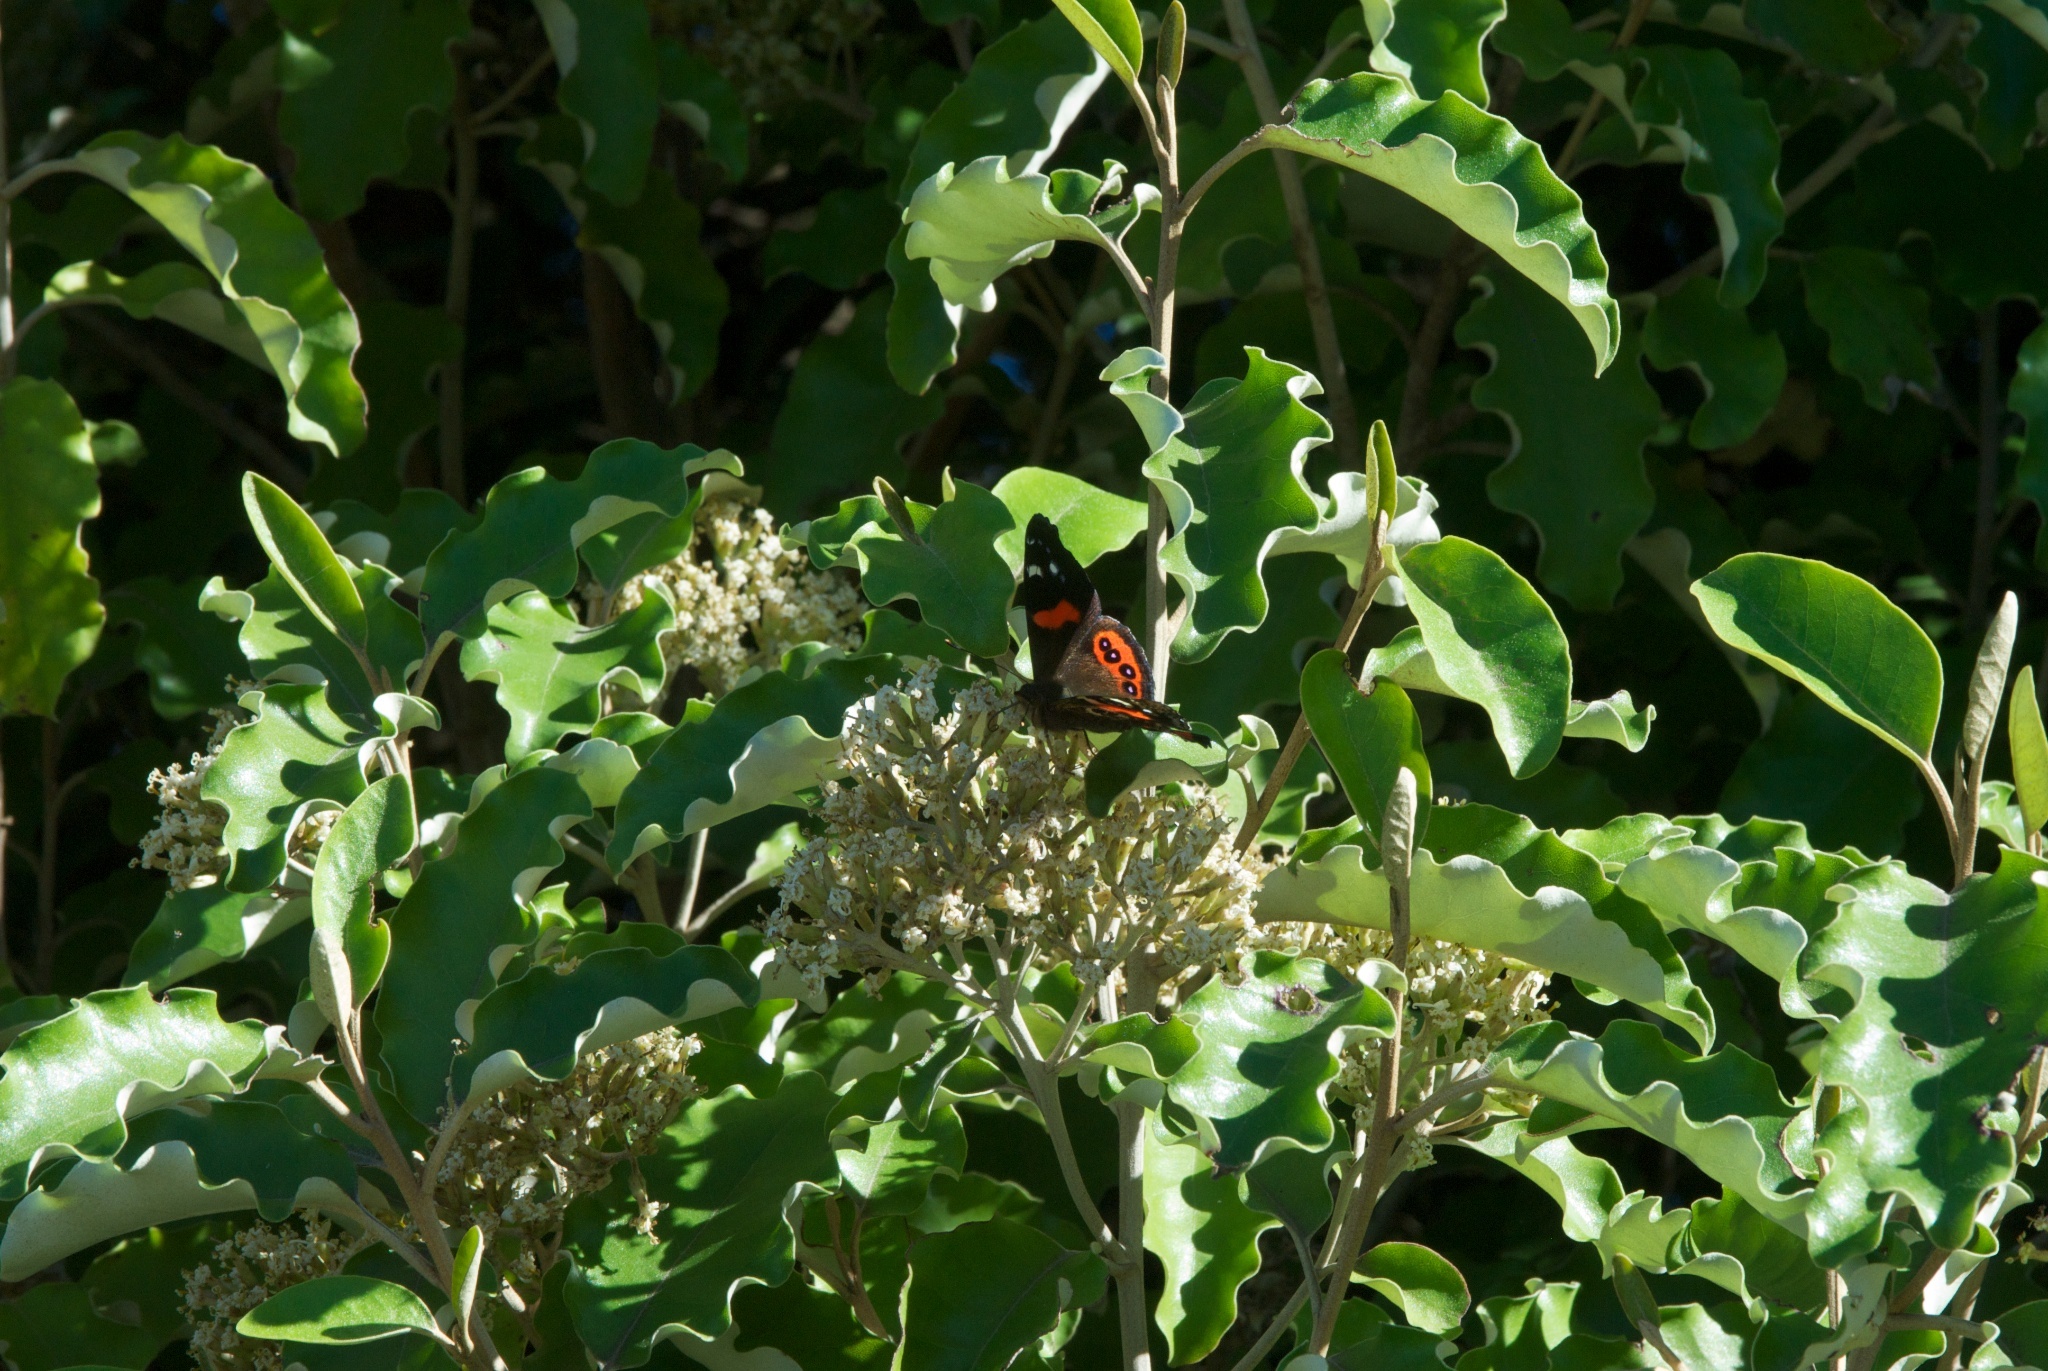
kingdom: Animalia
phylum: Arthropoda
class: Insecta
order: Lepidoptera
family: Nymphalidae
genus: Vanessa
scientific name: Vanessa gonerilla
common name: New zealand red admiral
